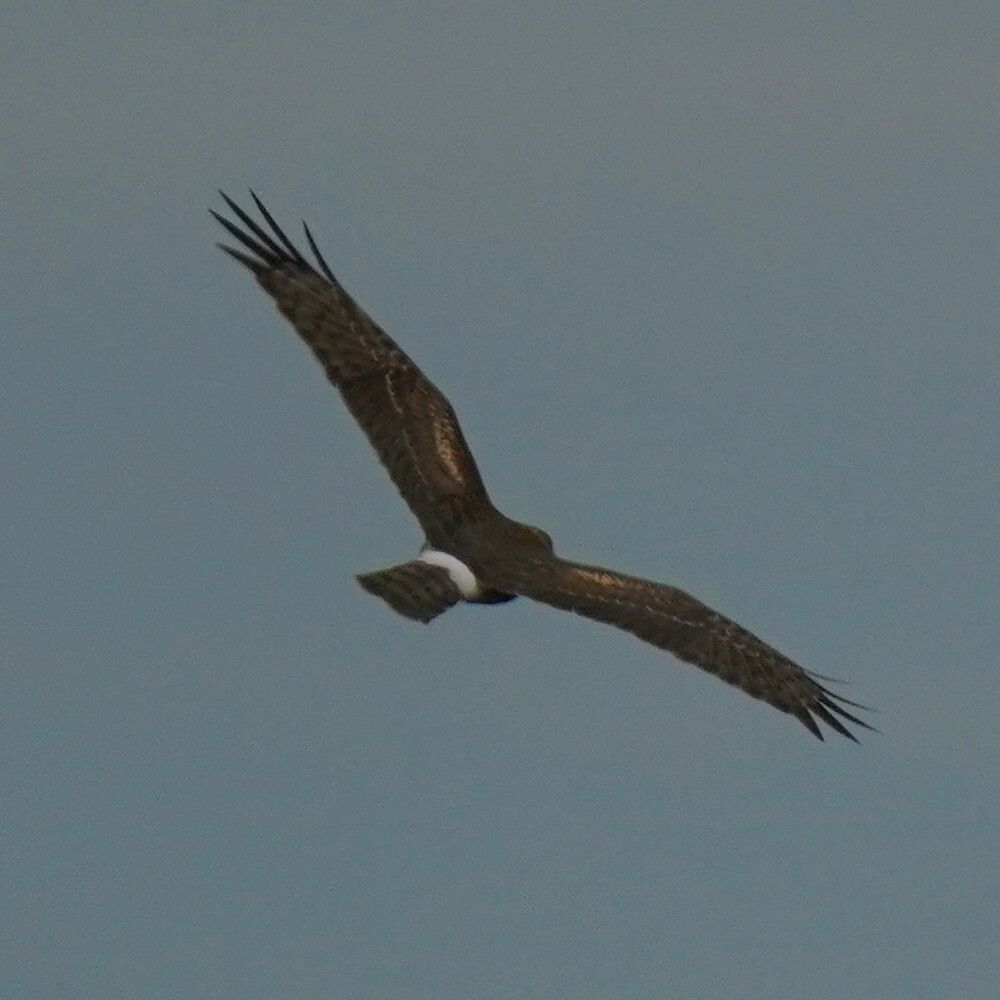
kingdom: Animalia
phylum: Chordata
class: Aves
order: Accipitriformes
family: Accipitridae
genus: Circus
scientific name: Circus cyaneus
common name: Hen harrier
